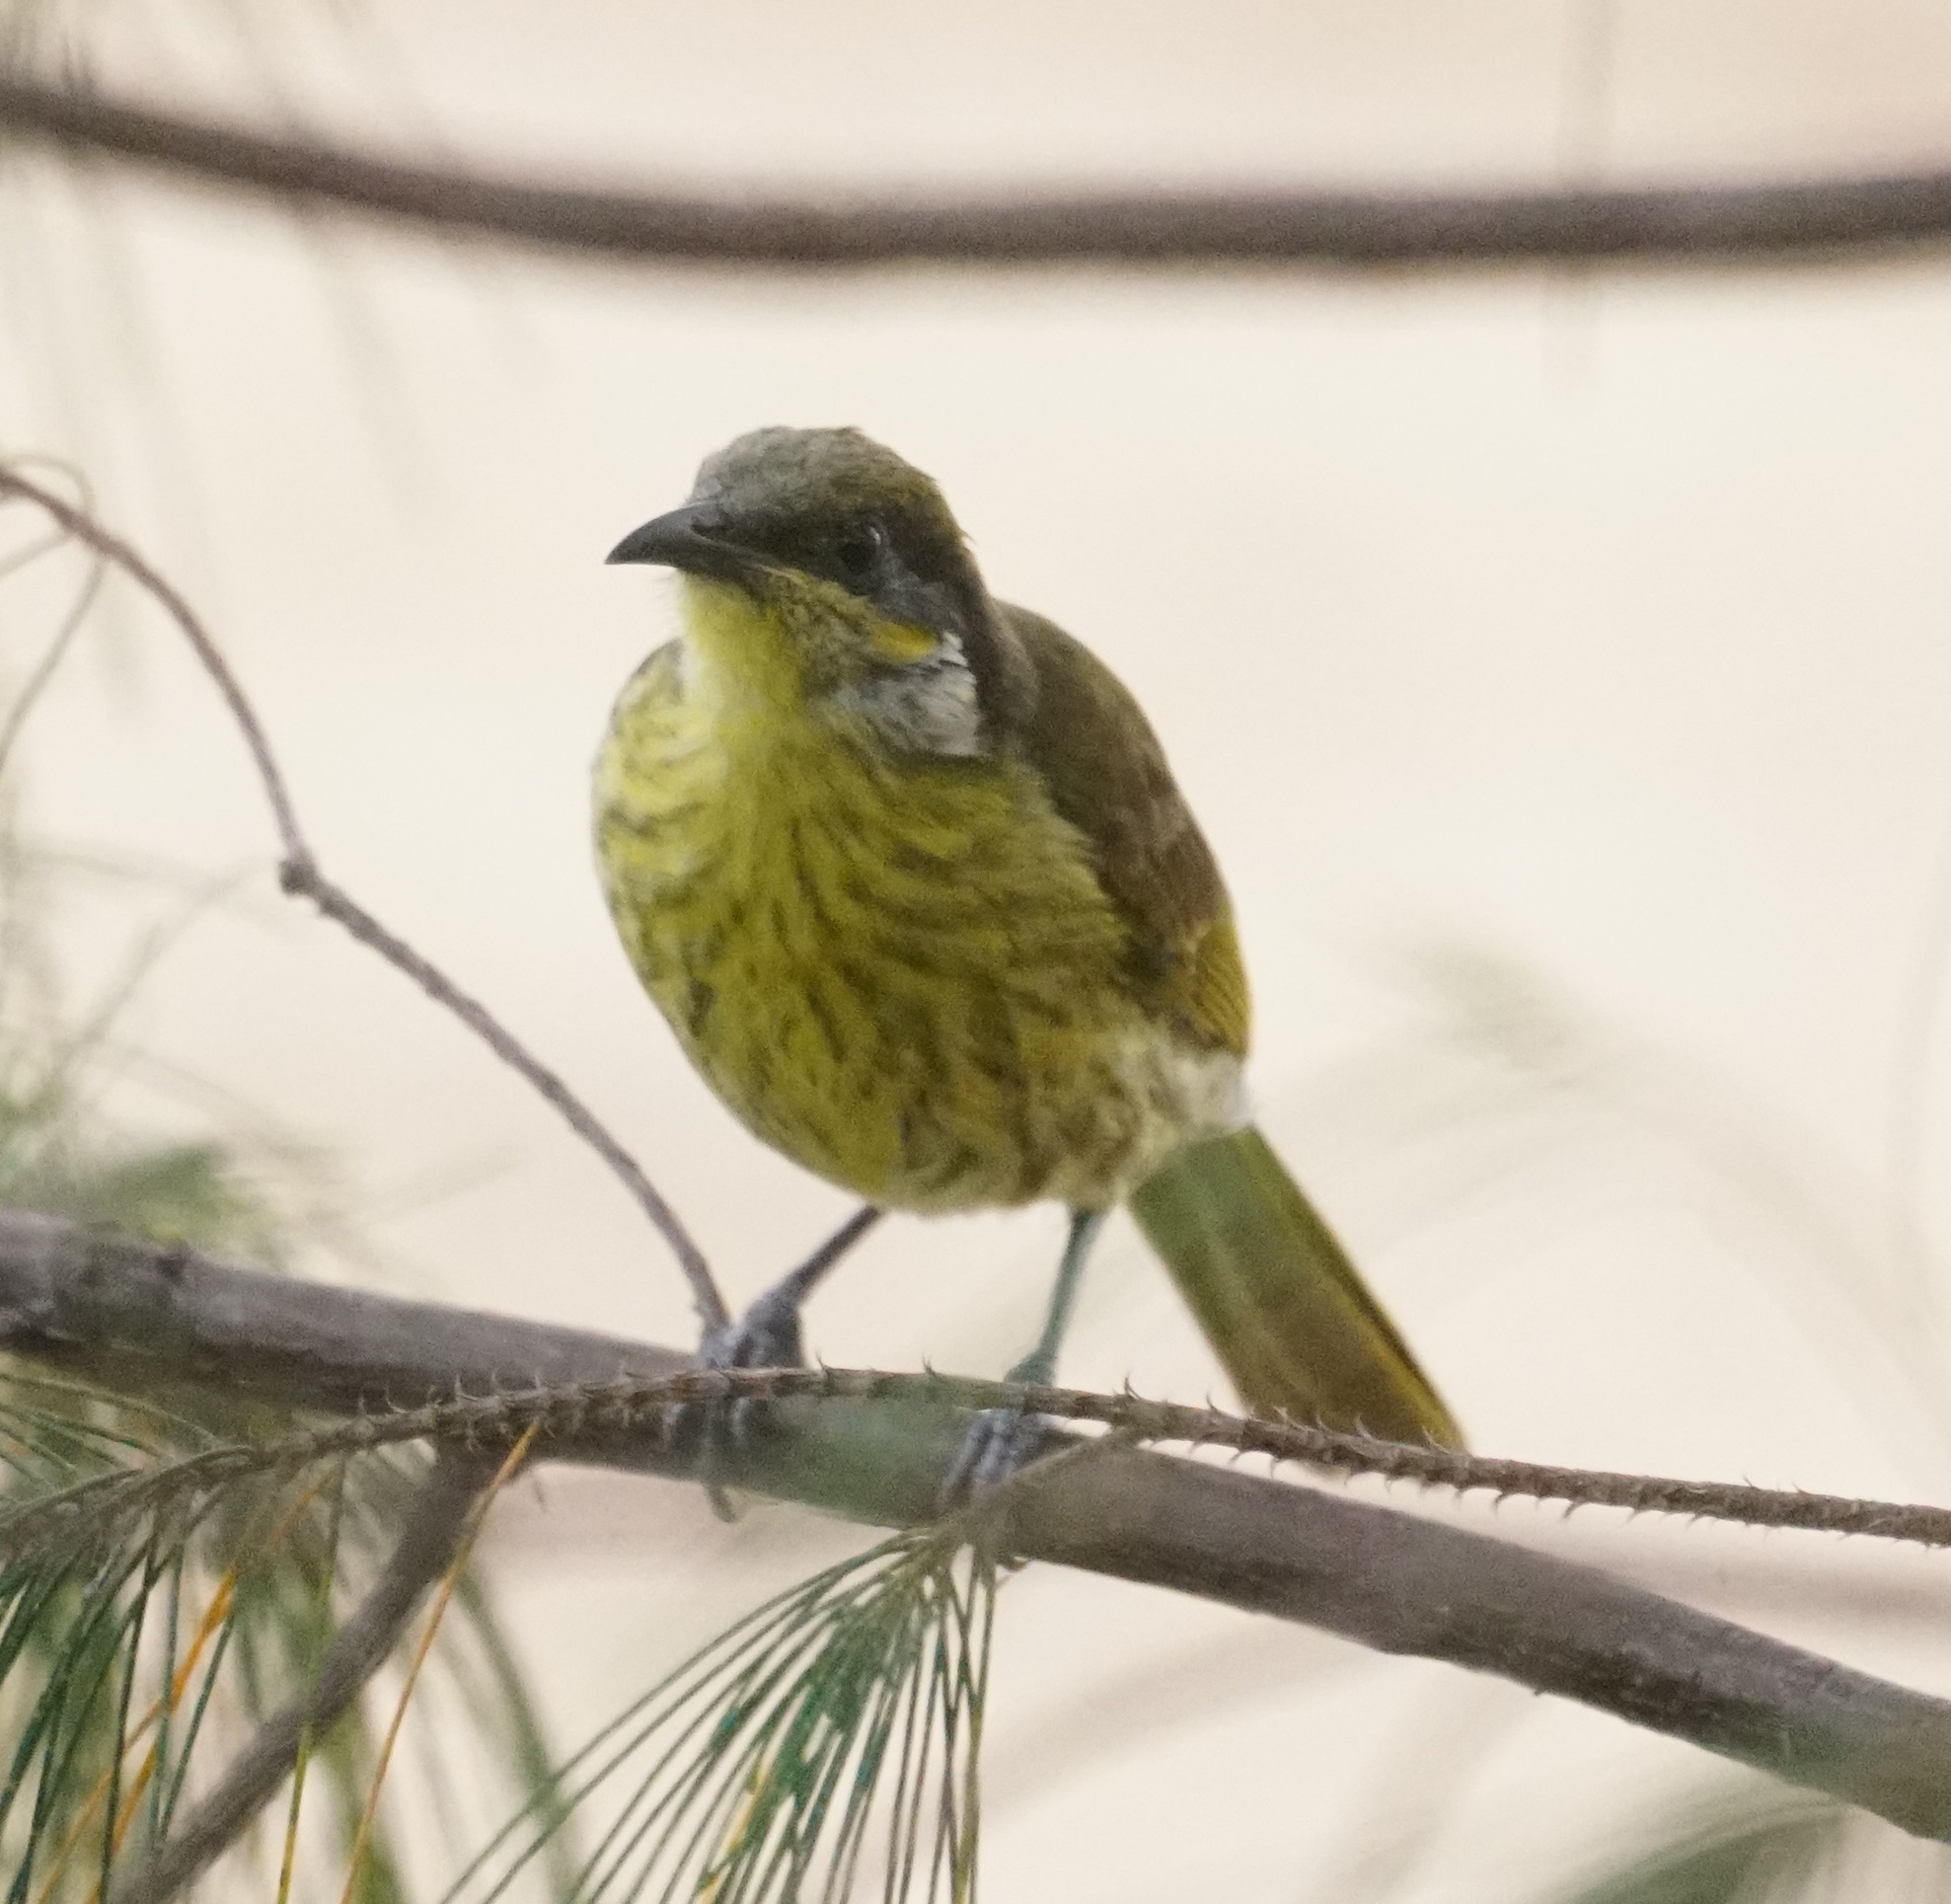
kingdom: Animalia
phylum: Chordata
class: Aves
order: Passeriformes
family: Meliphagidae
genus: Gavicalis
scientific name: Gavicalis versicolor
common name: Varied honeyeater
